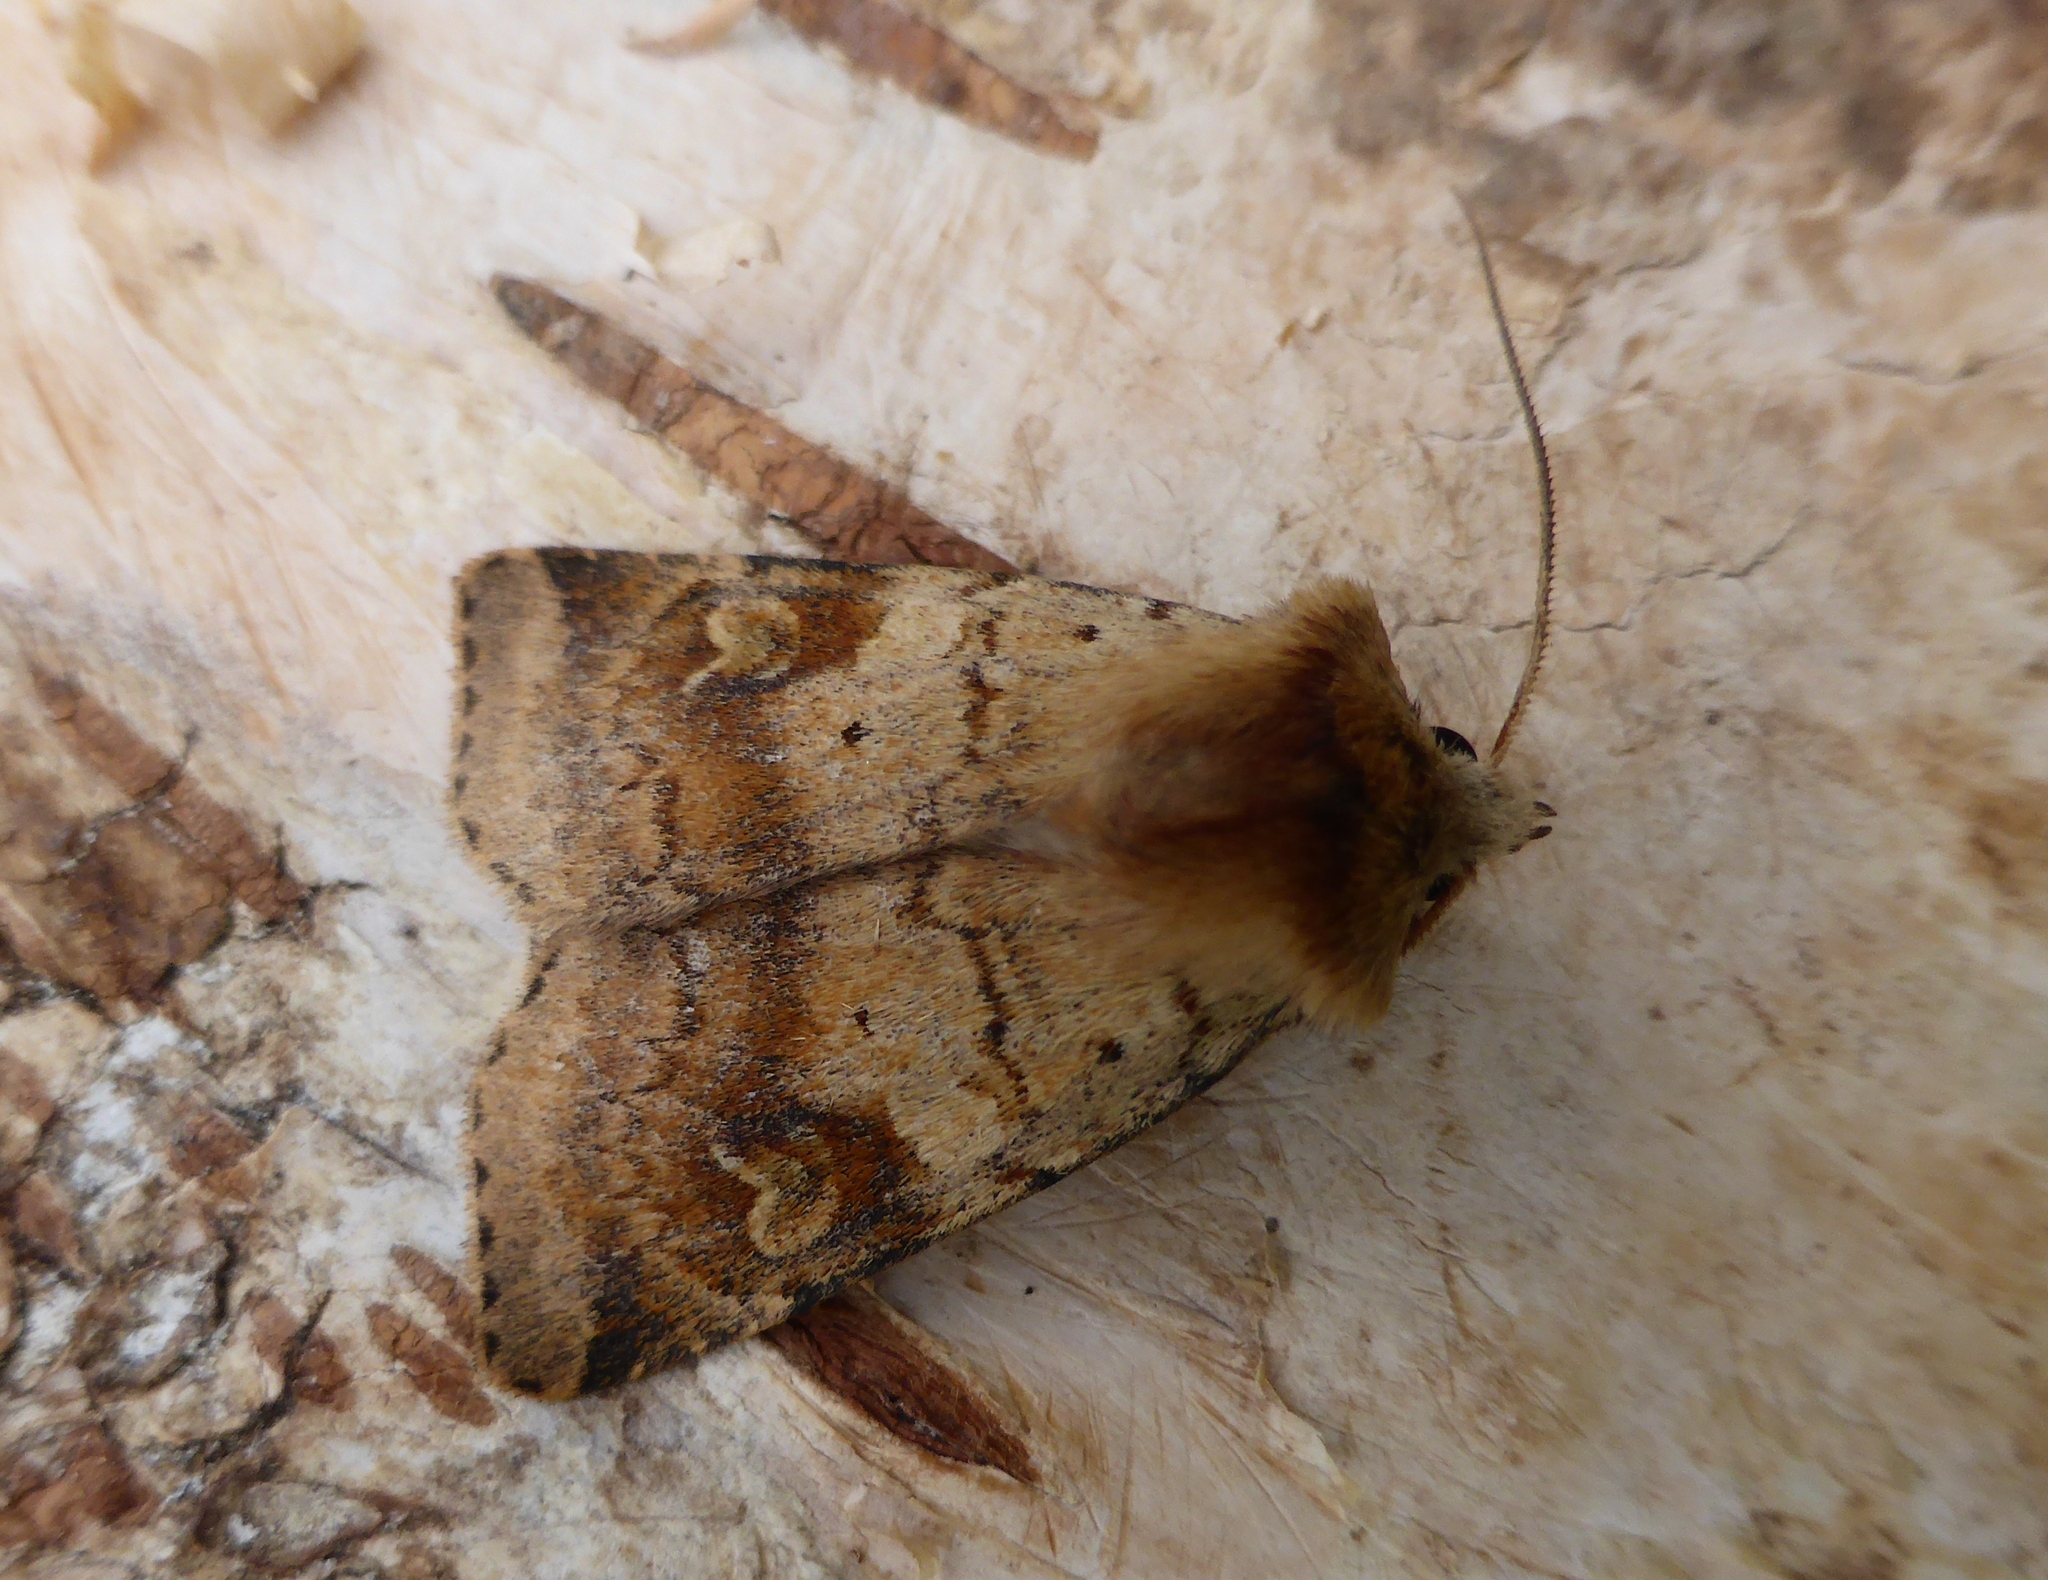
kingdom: Animalia
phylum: Arthropoda
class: Insecta
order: Lepidoptera
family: Noctuidae
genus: Diarsia
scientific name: Diarsia mendica
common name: Ingrailed clay
